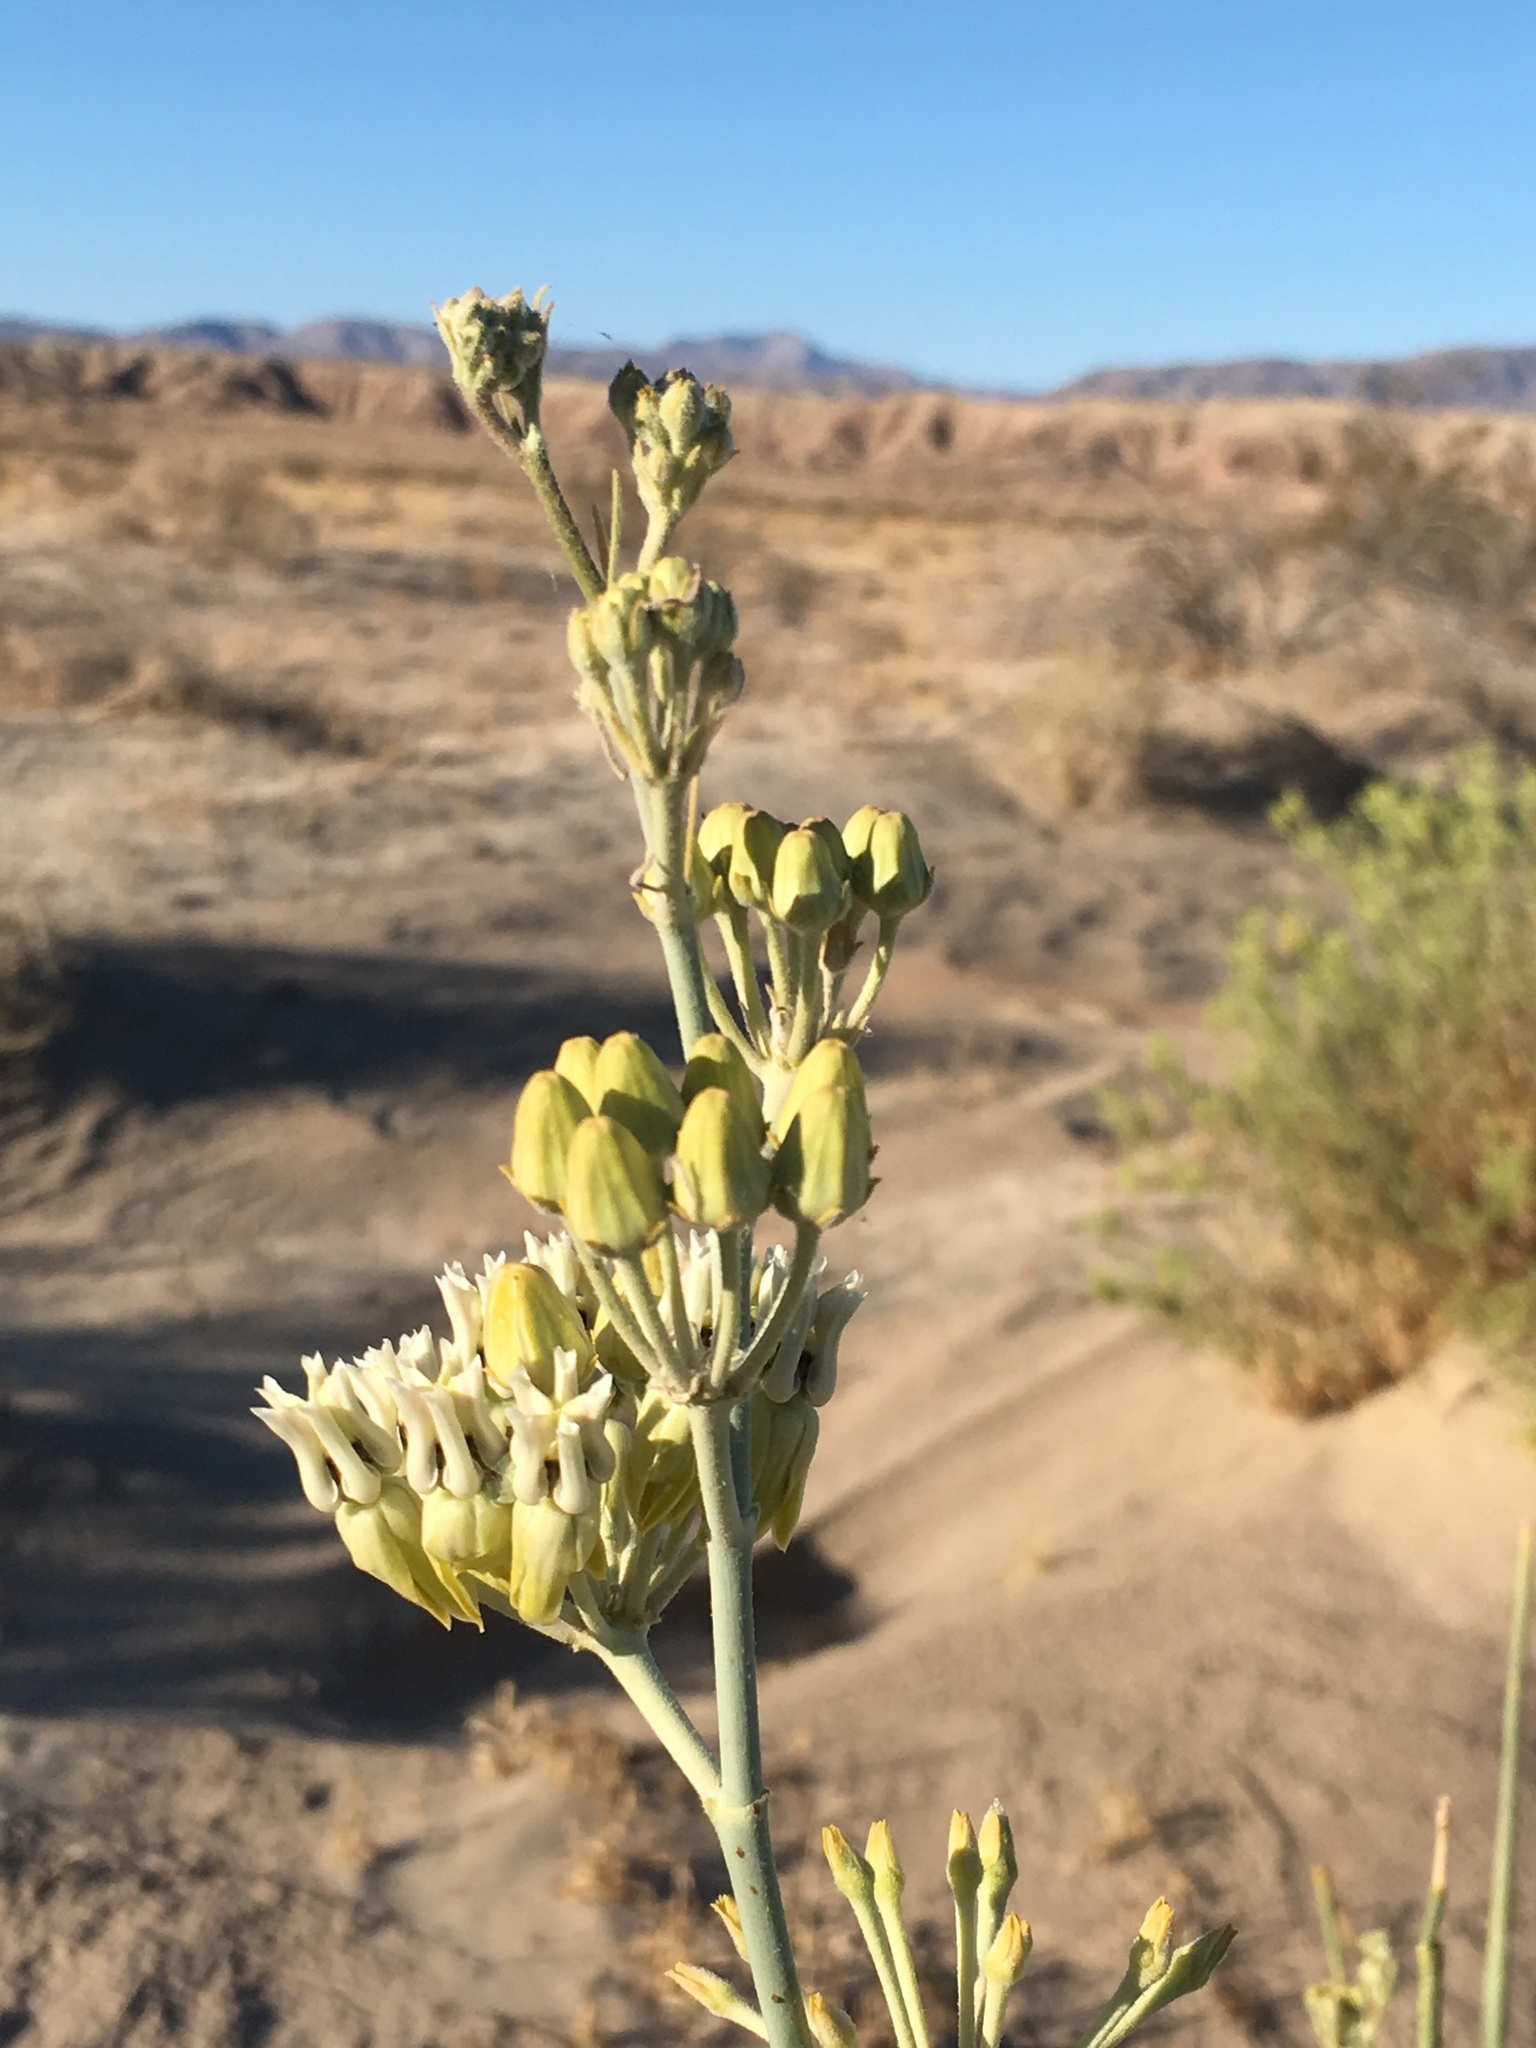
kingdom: Plantae
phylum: Tracheophyta
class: Magnoliopsida
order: Gentianales
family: Apocynaceae
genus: Asclepias
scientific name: Asclepias subulata
